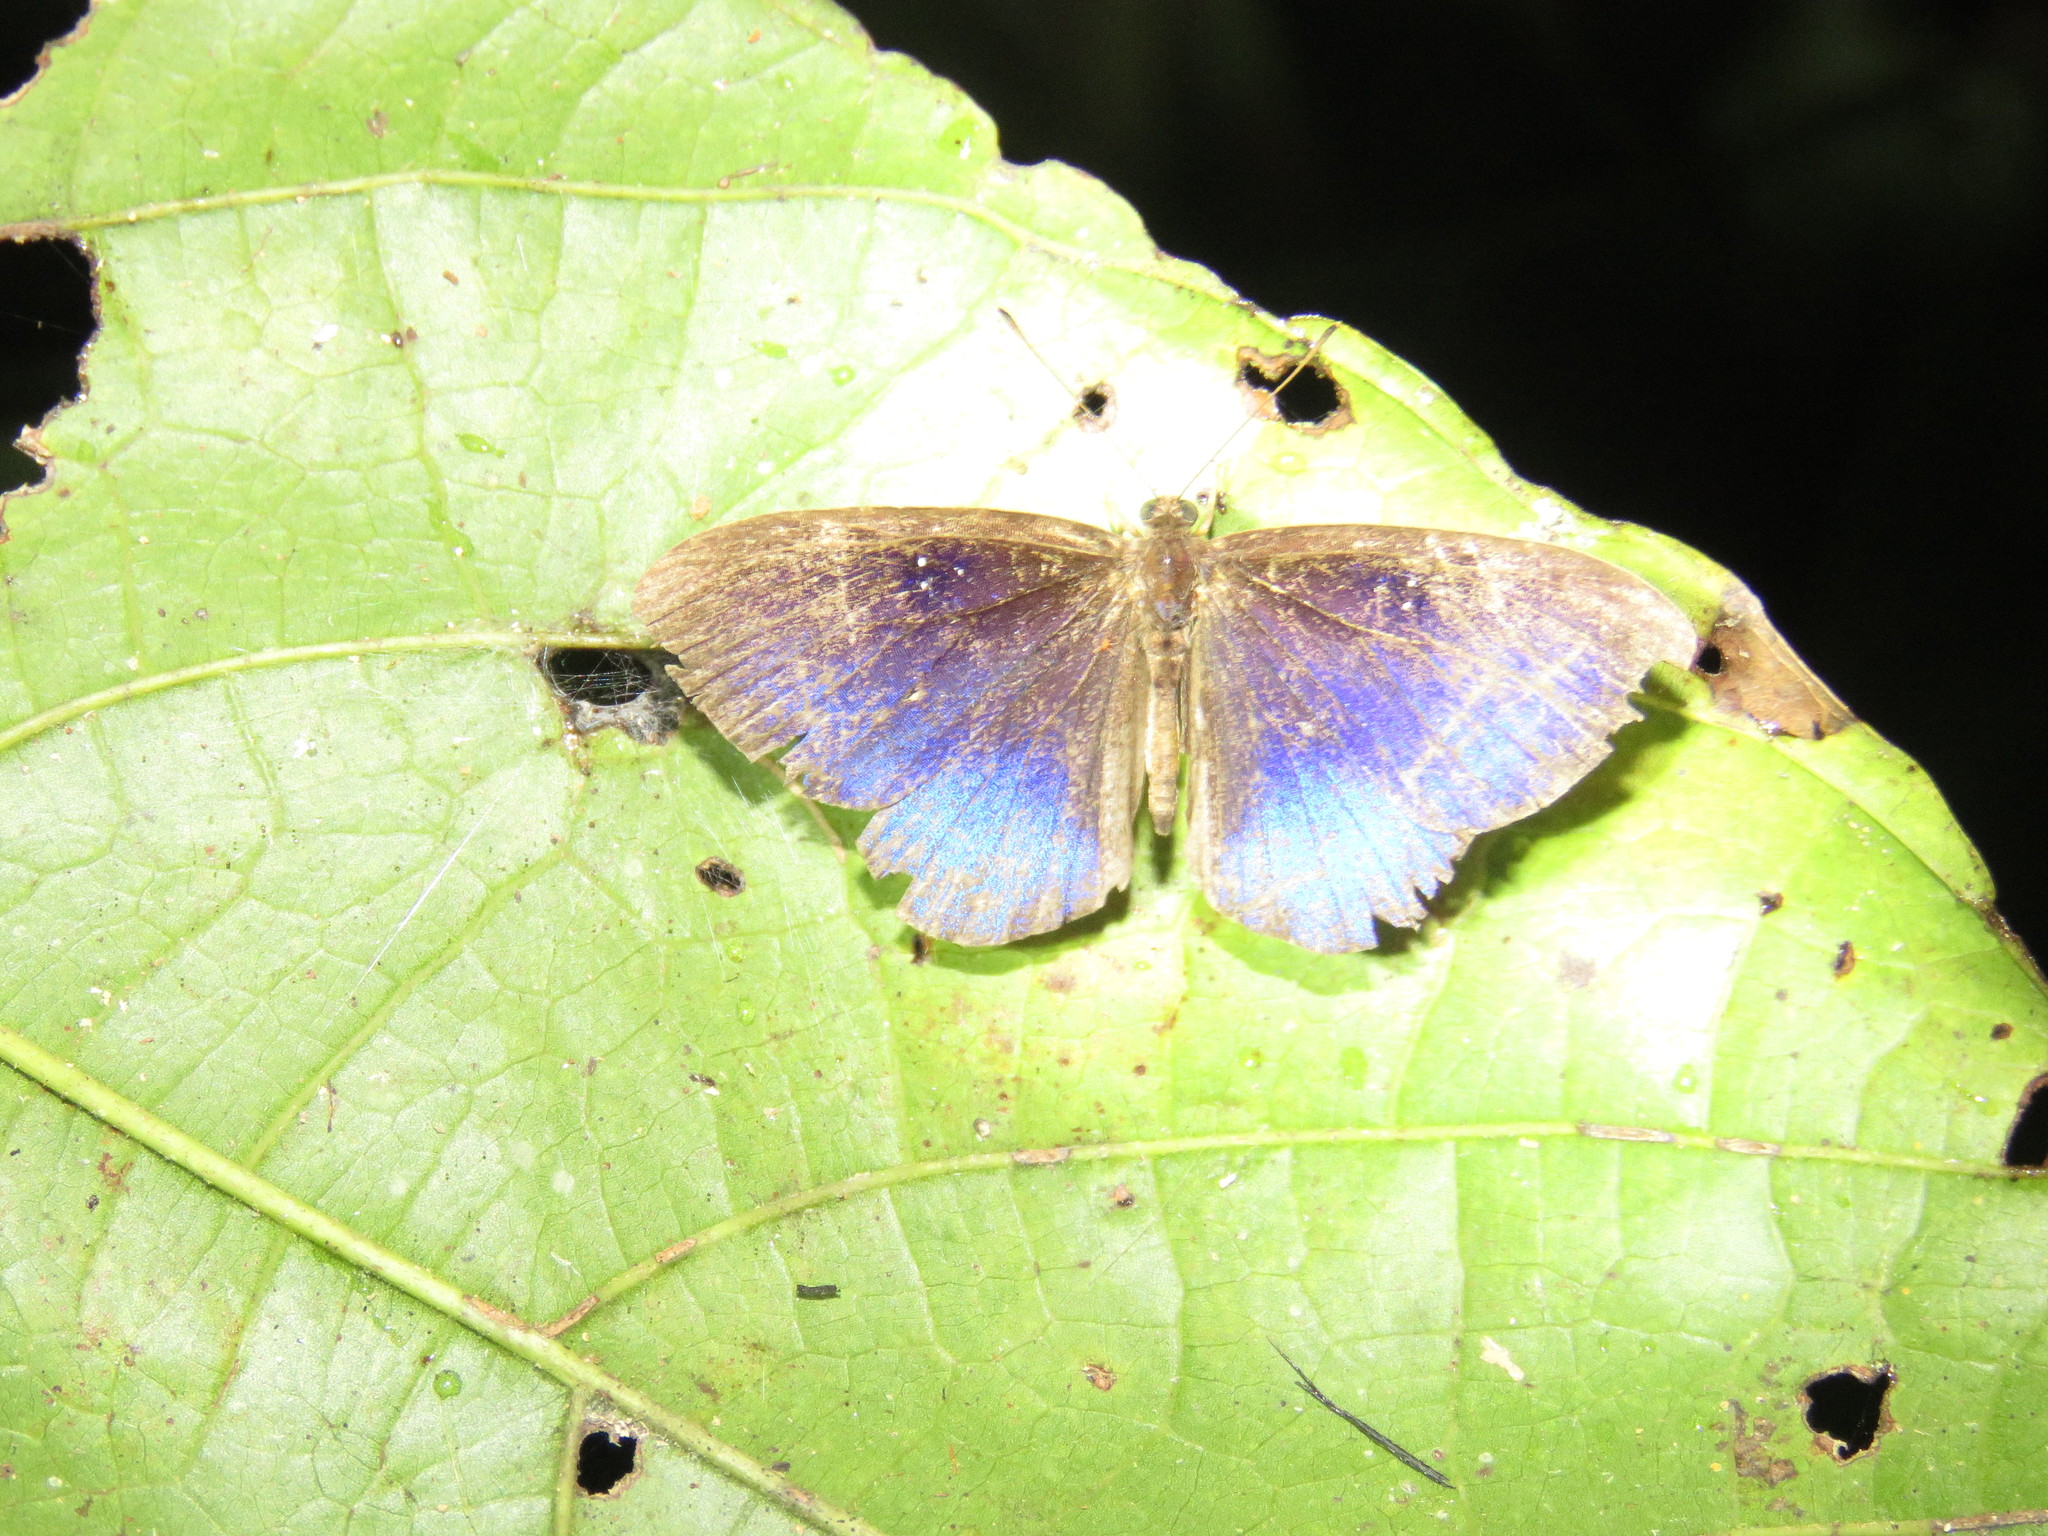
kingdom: Animalia
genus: Mesosemia
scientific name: Mesosemia ulrica
